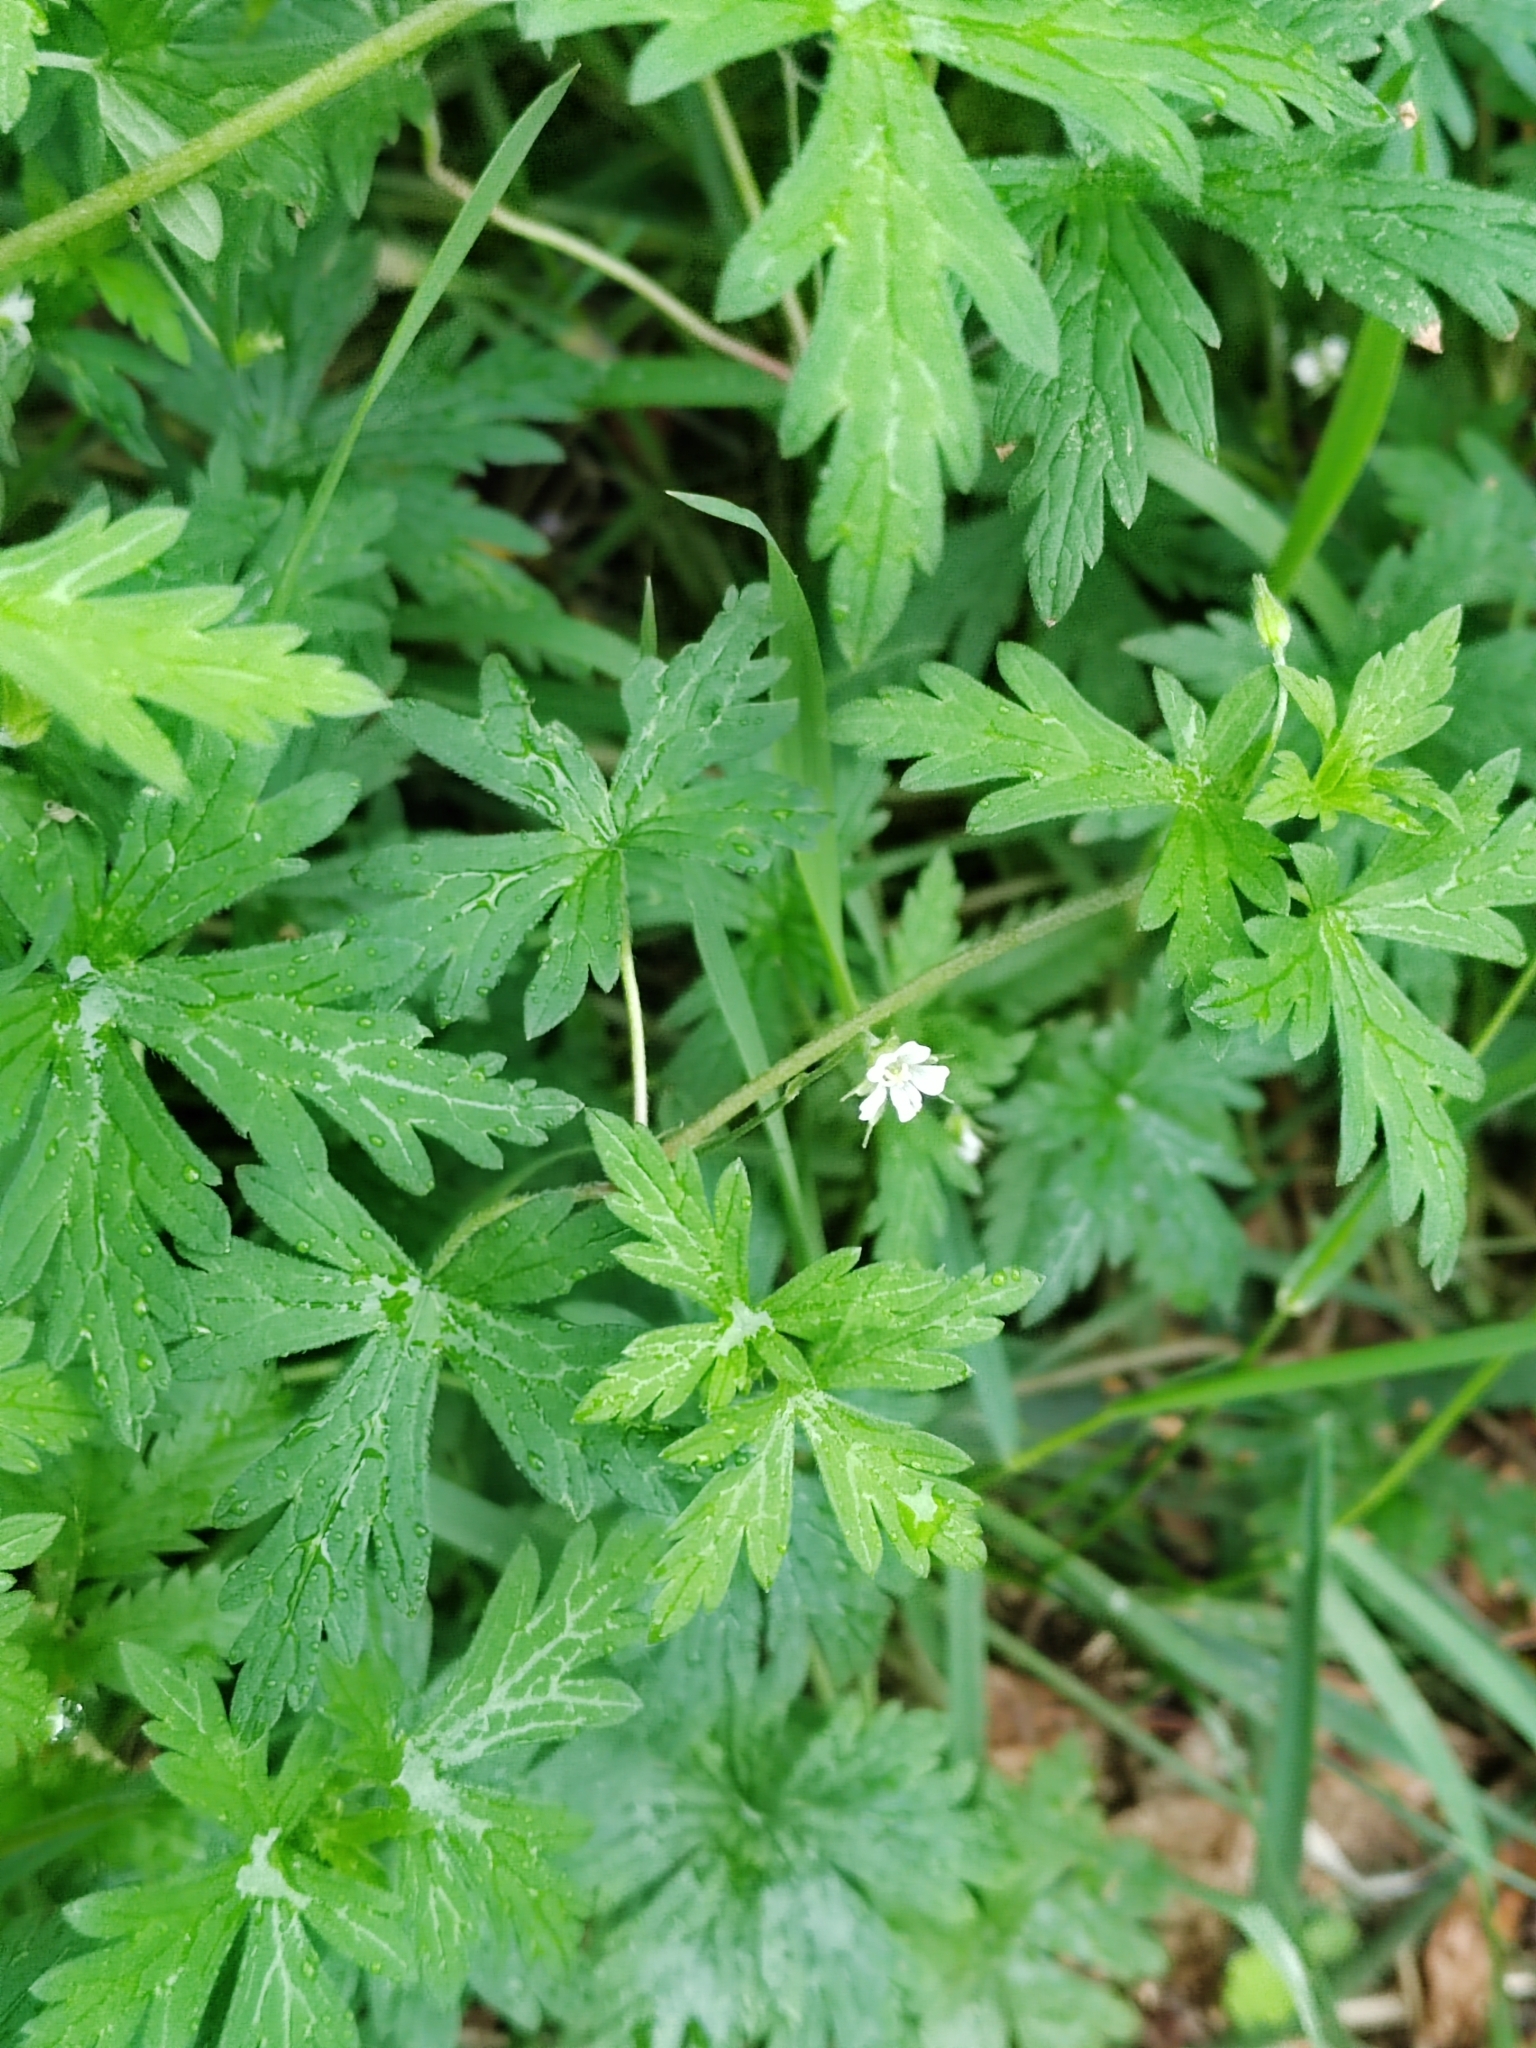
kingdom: Plantae
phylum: Tracheophyta
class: Magnoliopsida
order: Geraniales
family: Geraniaceae
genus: Geranium
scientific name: Geranium sibiricum
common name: Siberian crane's-bill
